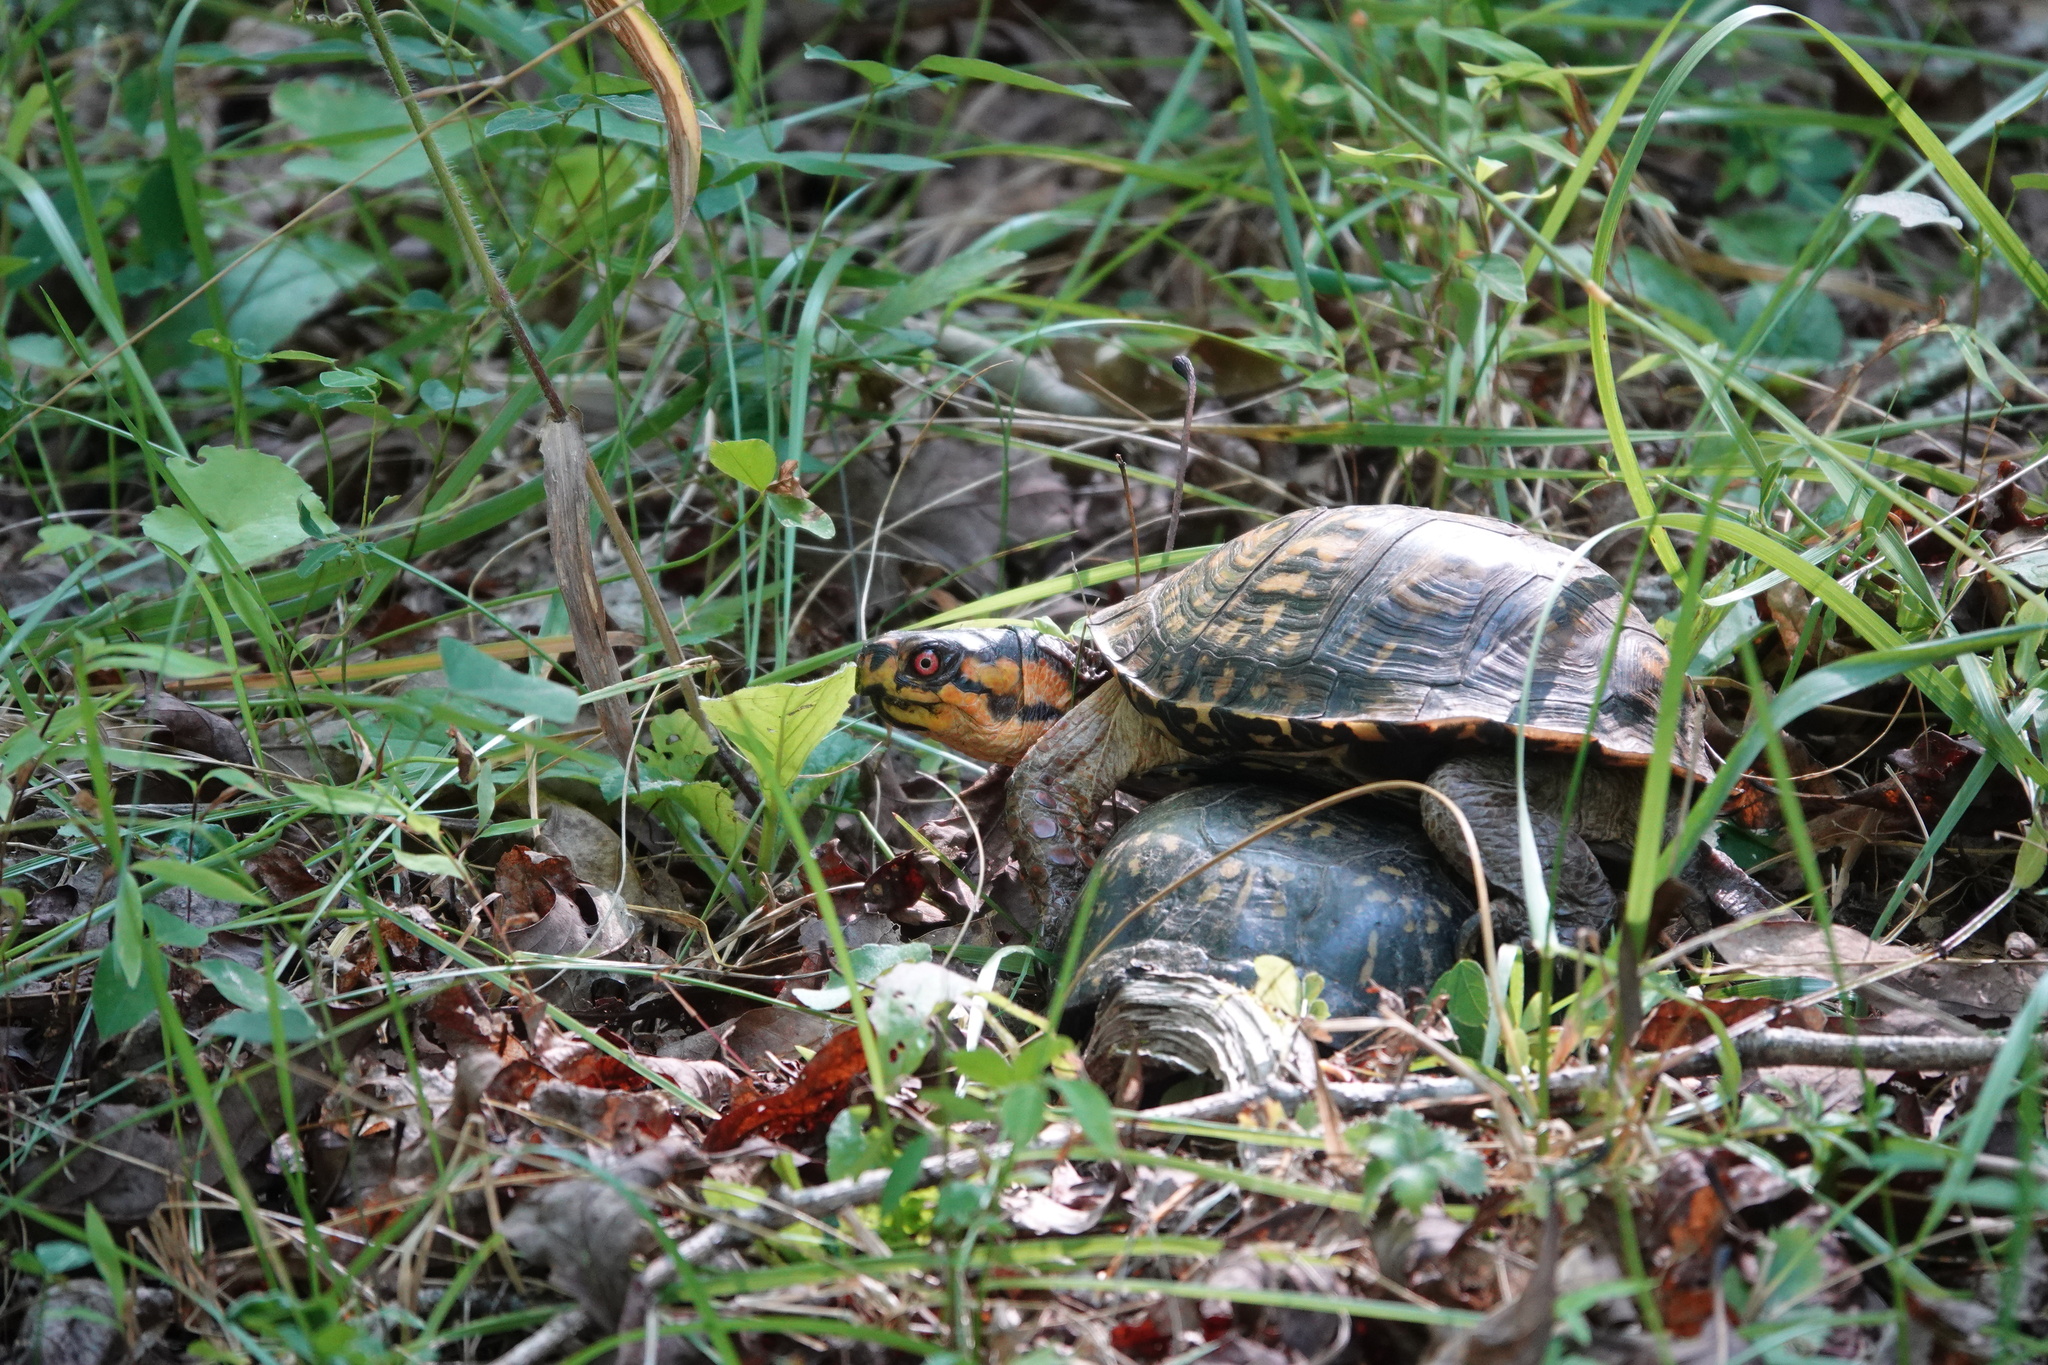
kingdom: Animalia
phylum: Chordata
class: Testudines
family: Emydidae
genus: Terrapene
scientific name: Terrapene carolina
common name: Common box turtle
